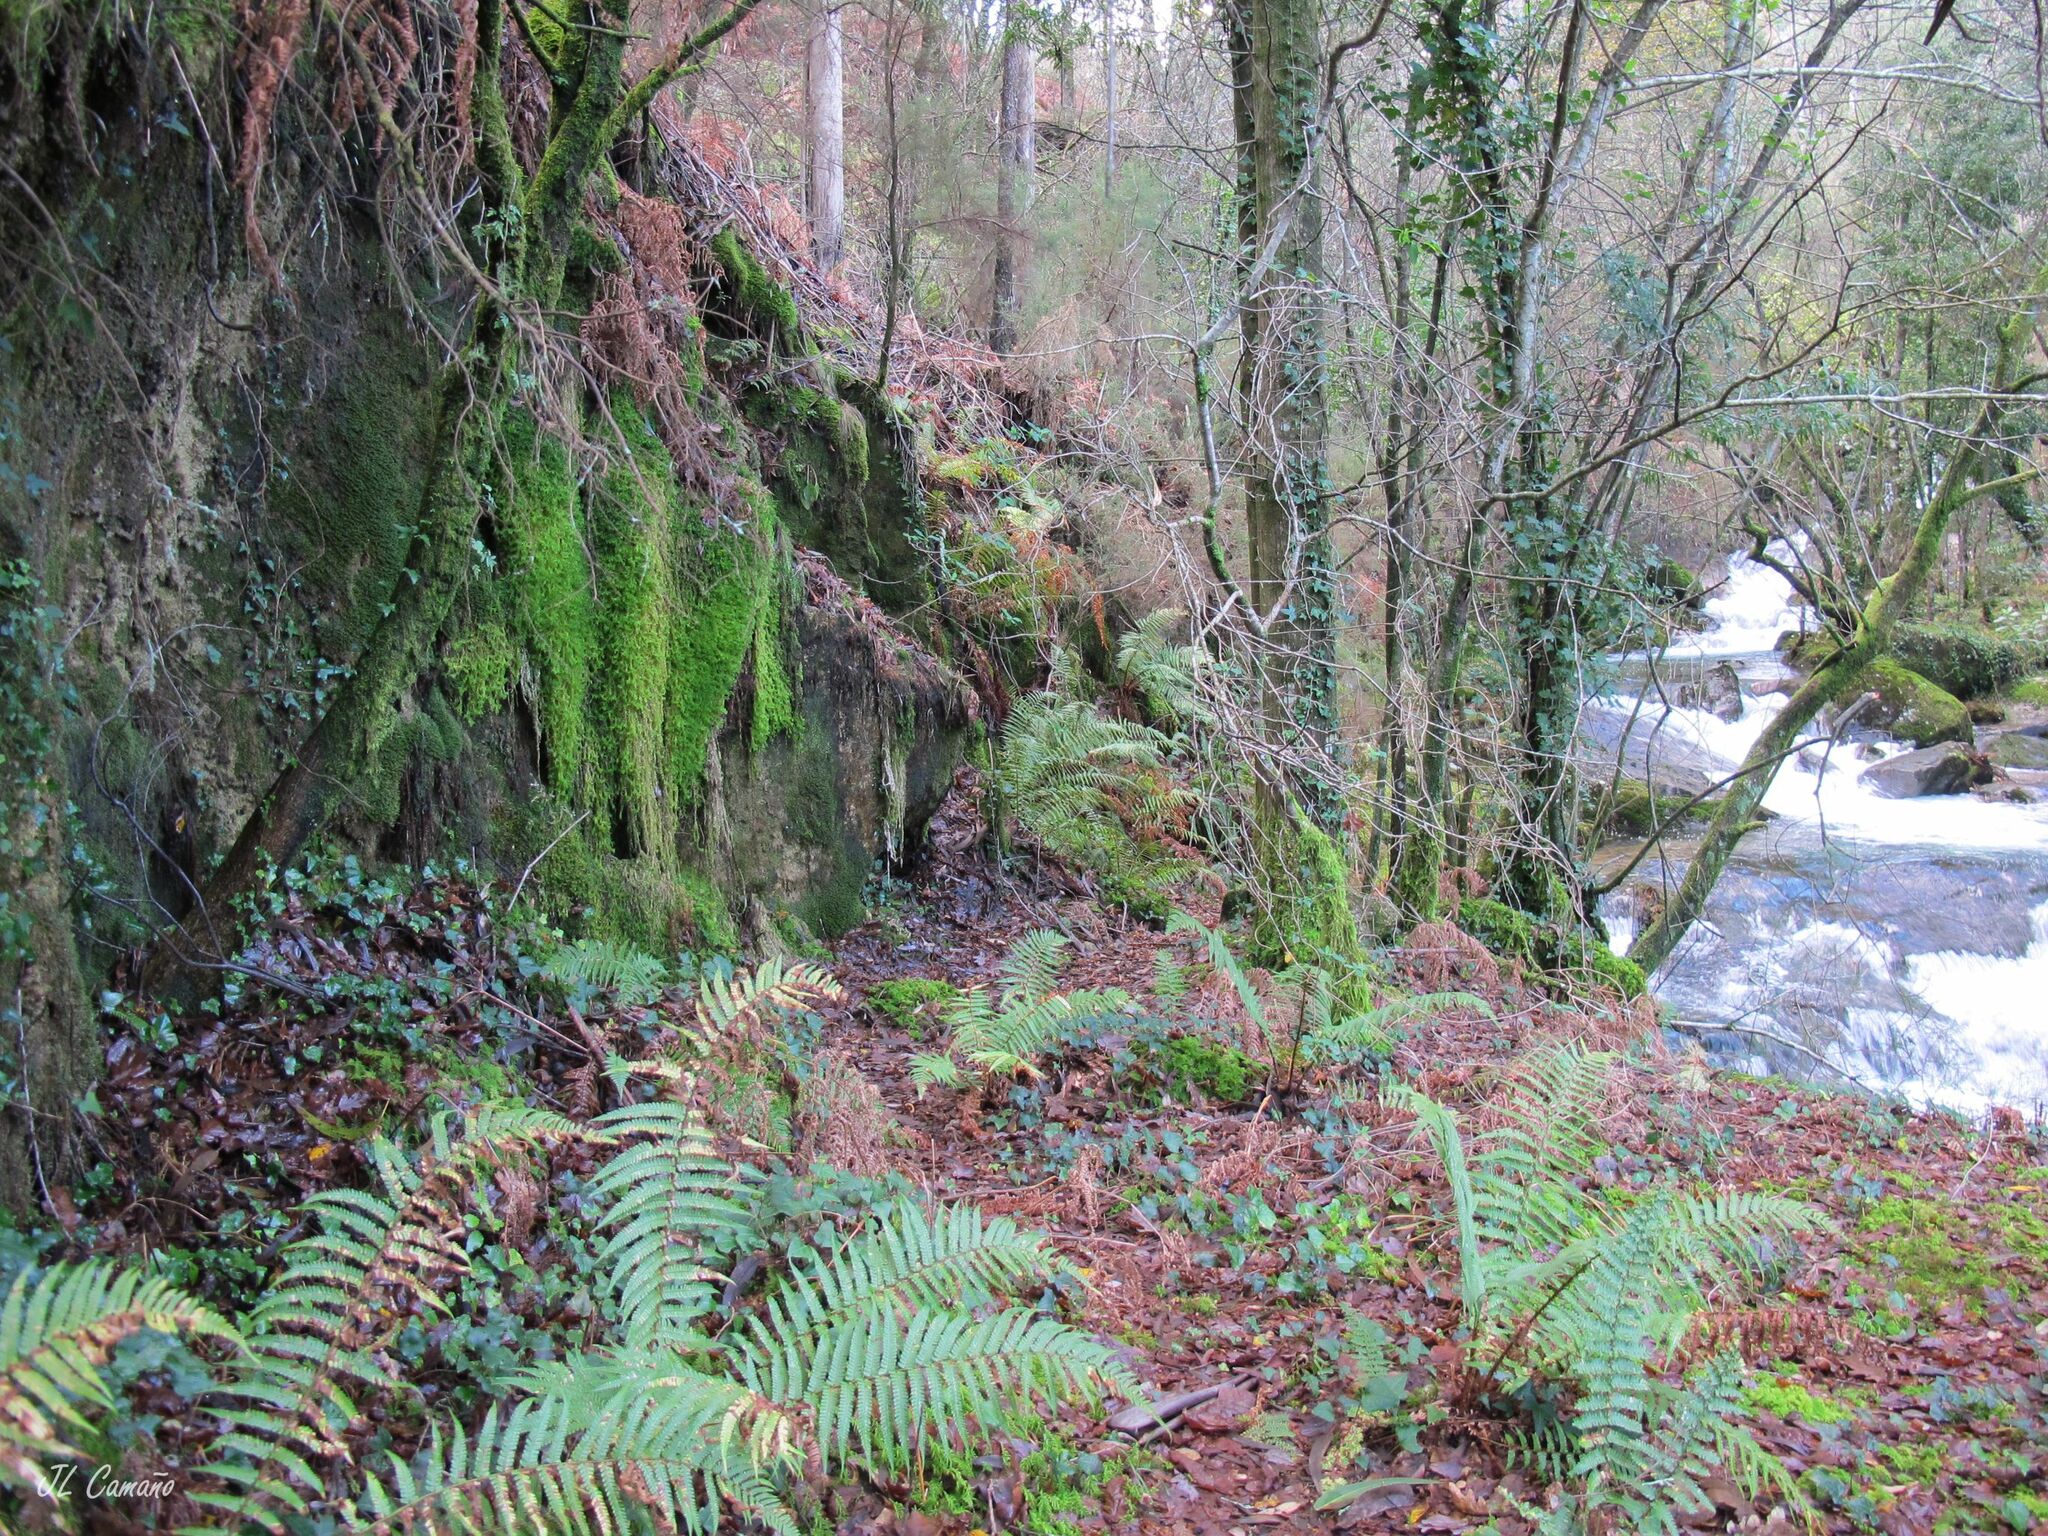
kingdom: Plantae
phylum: Marchantiophyta
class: Jungermanniopsida
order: Jungermanniales
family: Scapaniaceae
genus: Diplophyllum
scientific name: Diplophyllum albicans
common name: White earwort
